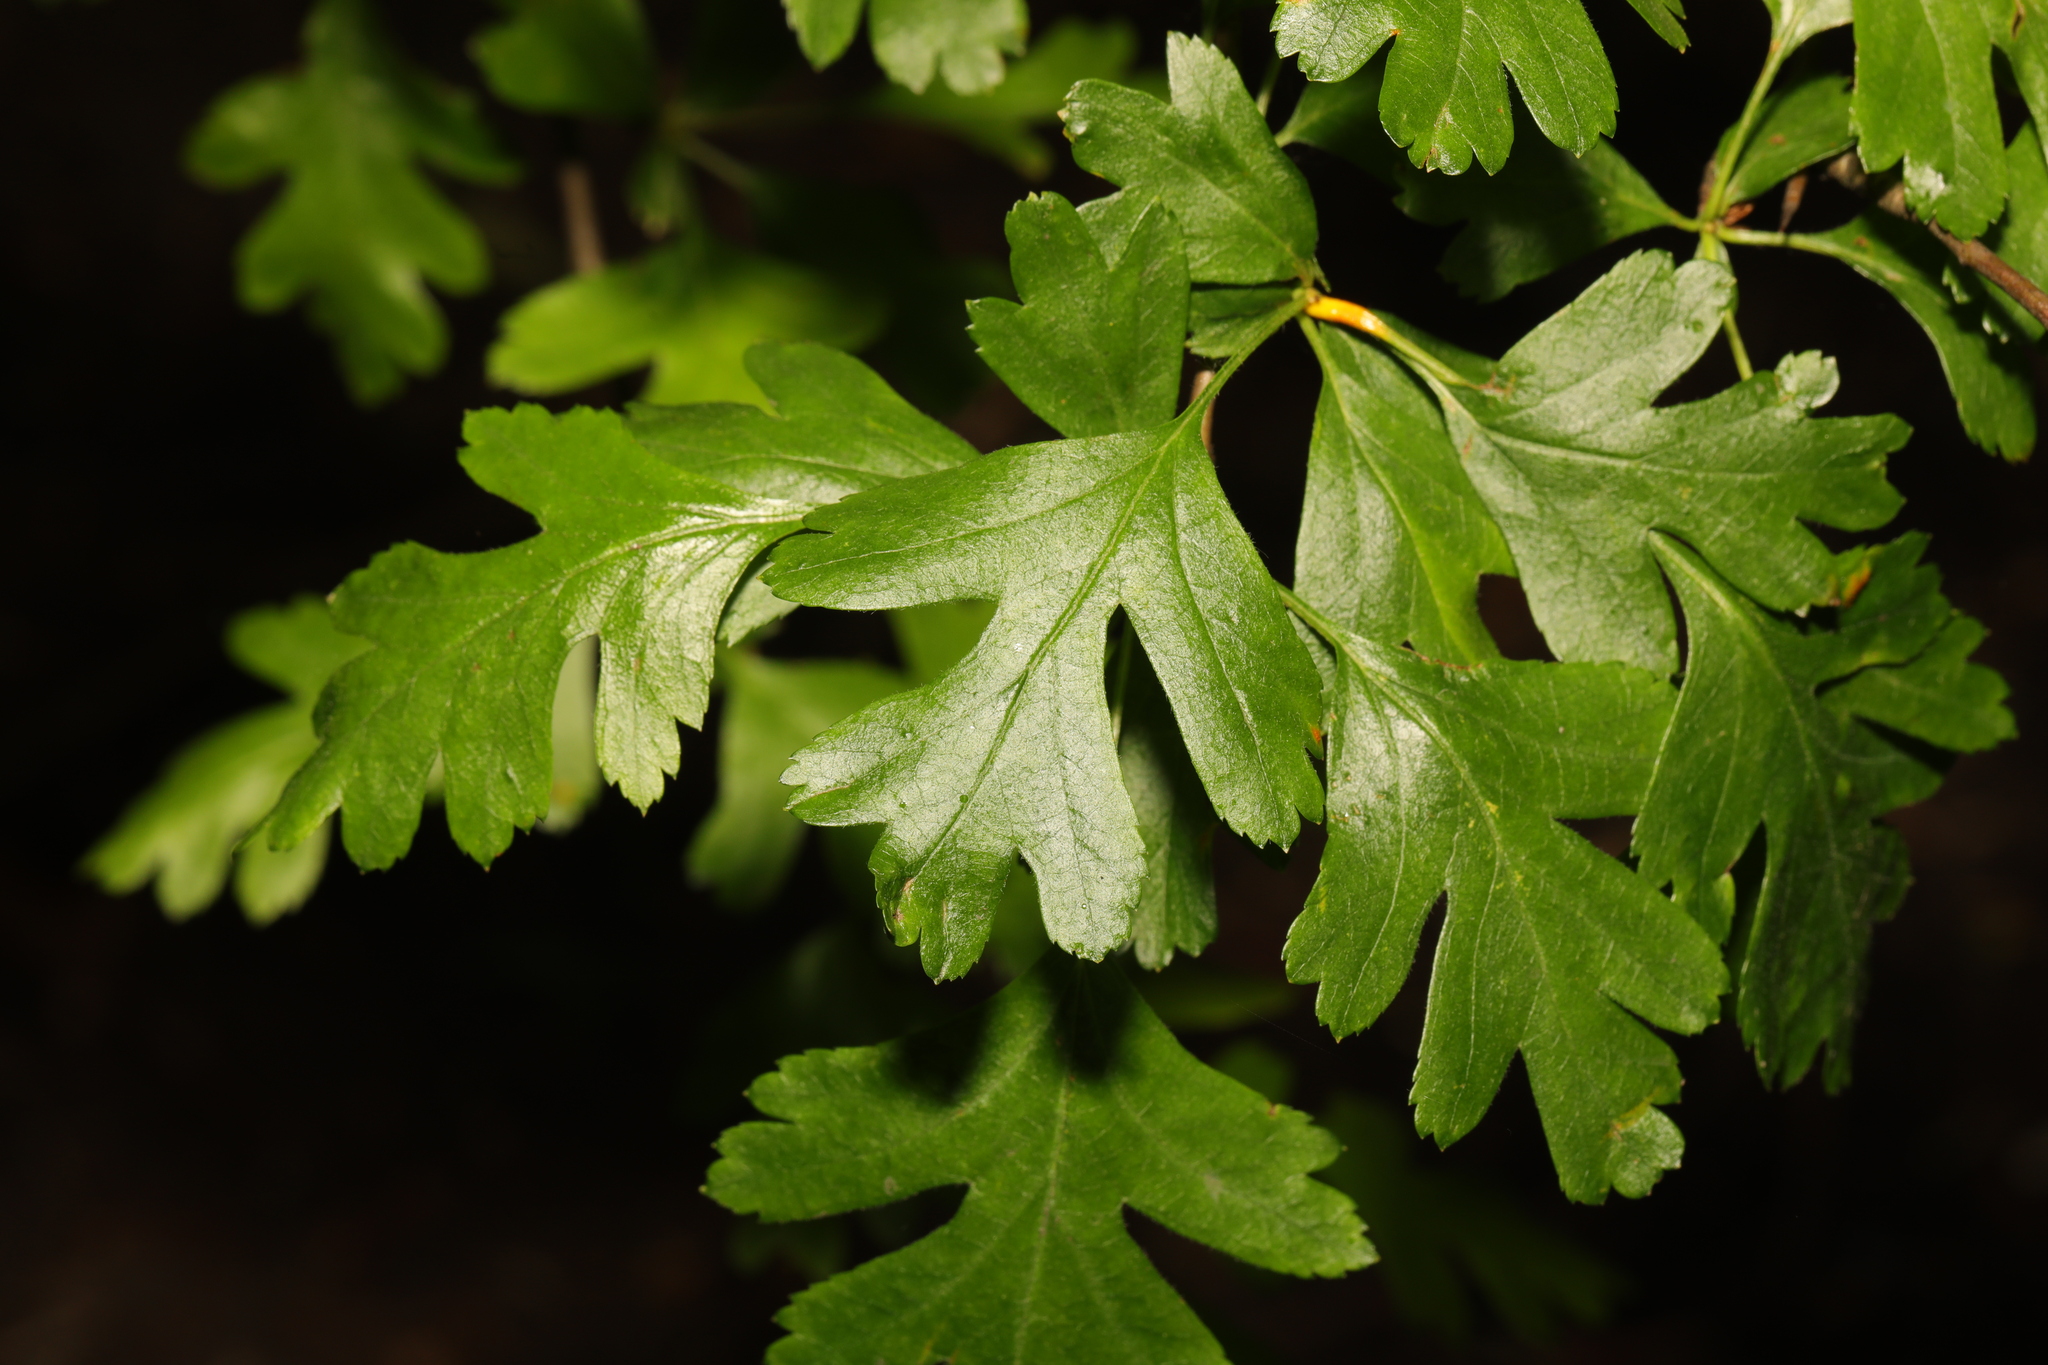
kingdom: Plantae
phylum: Tracheophyta
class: Magnoliopsida
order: Rosales
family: Rosaceae
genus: Crataegus
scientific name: Crataegus monogyna
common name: Hawthorn
